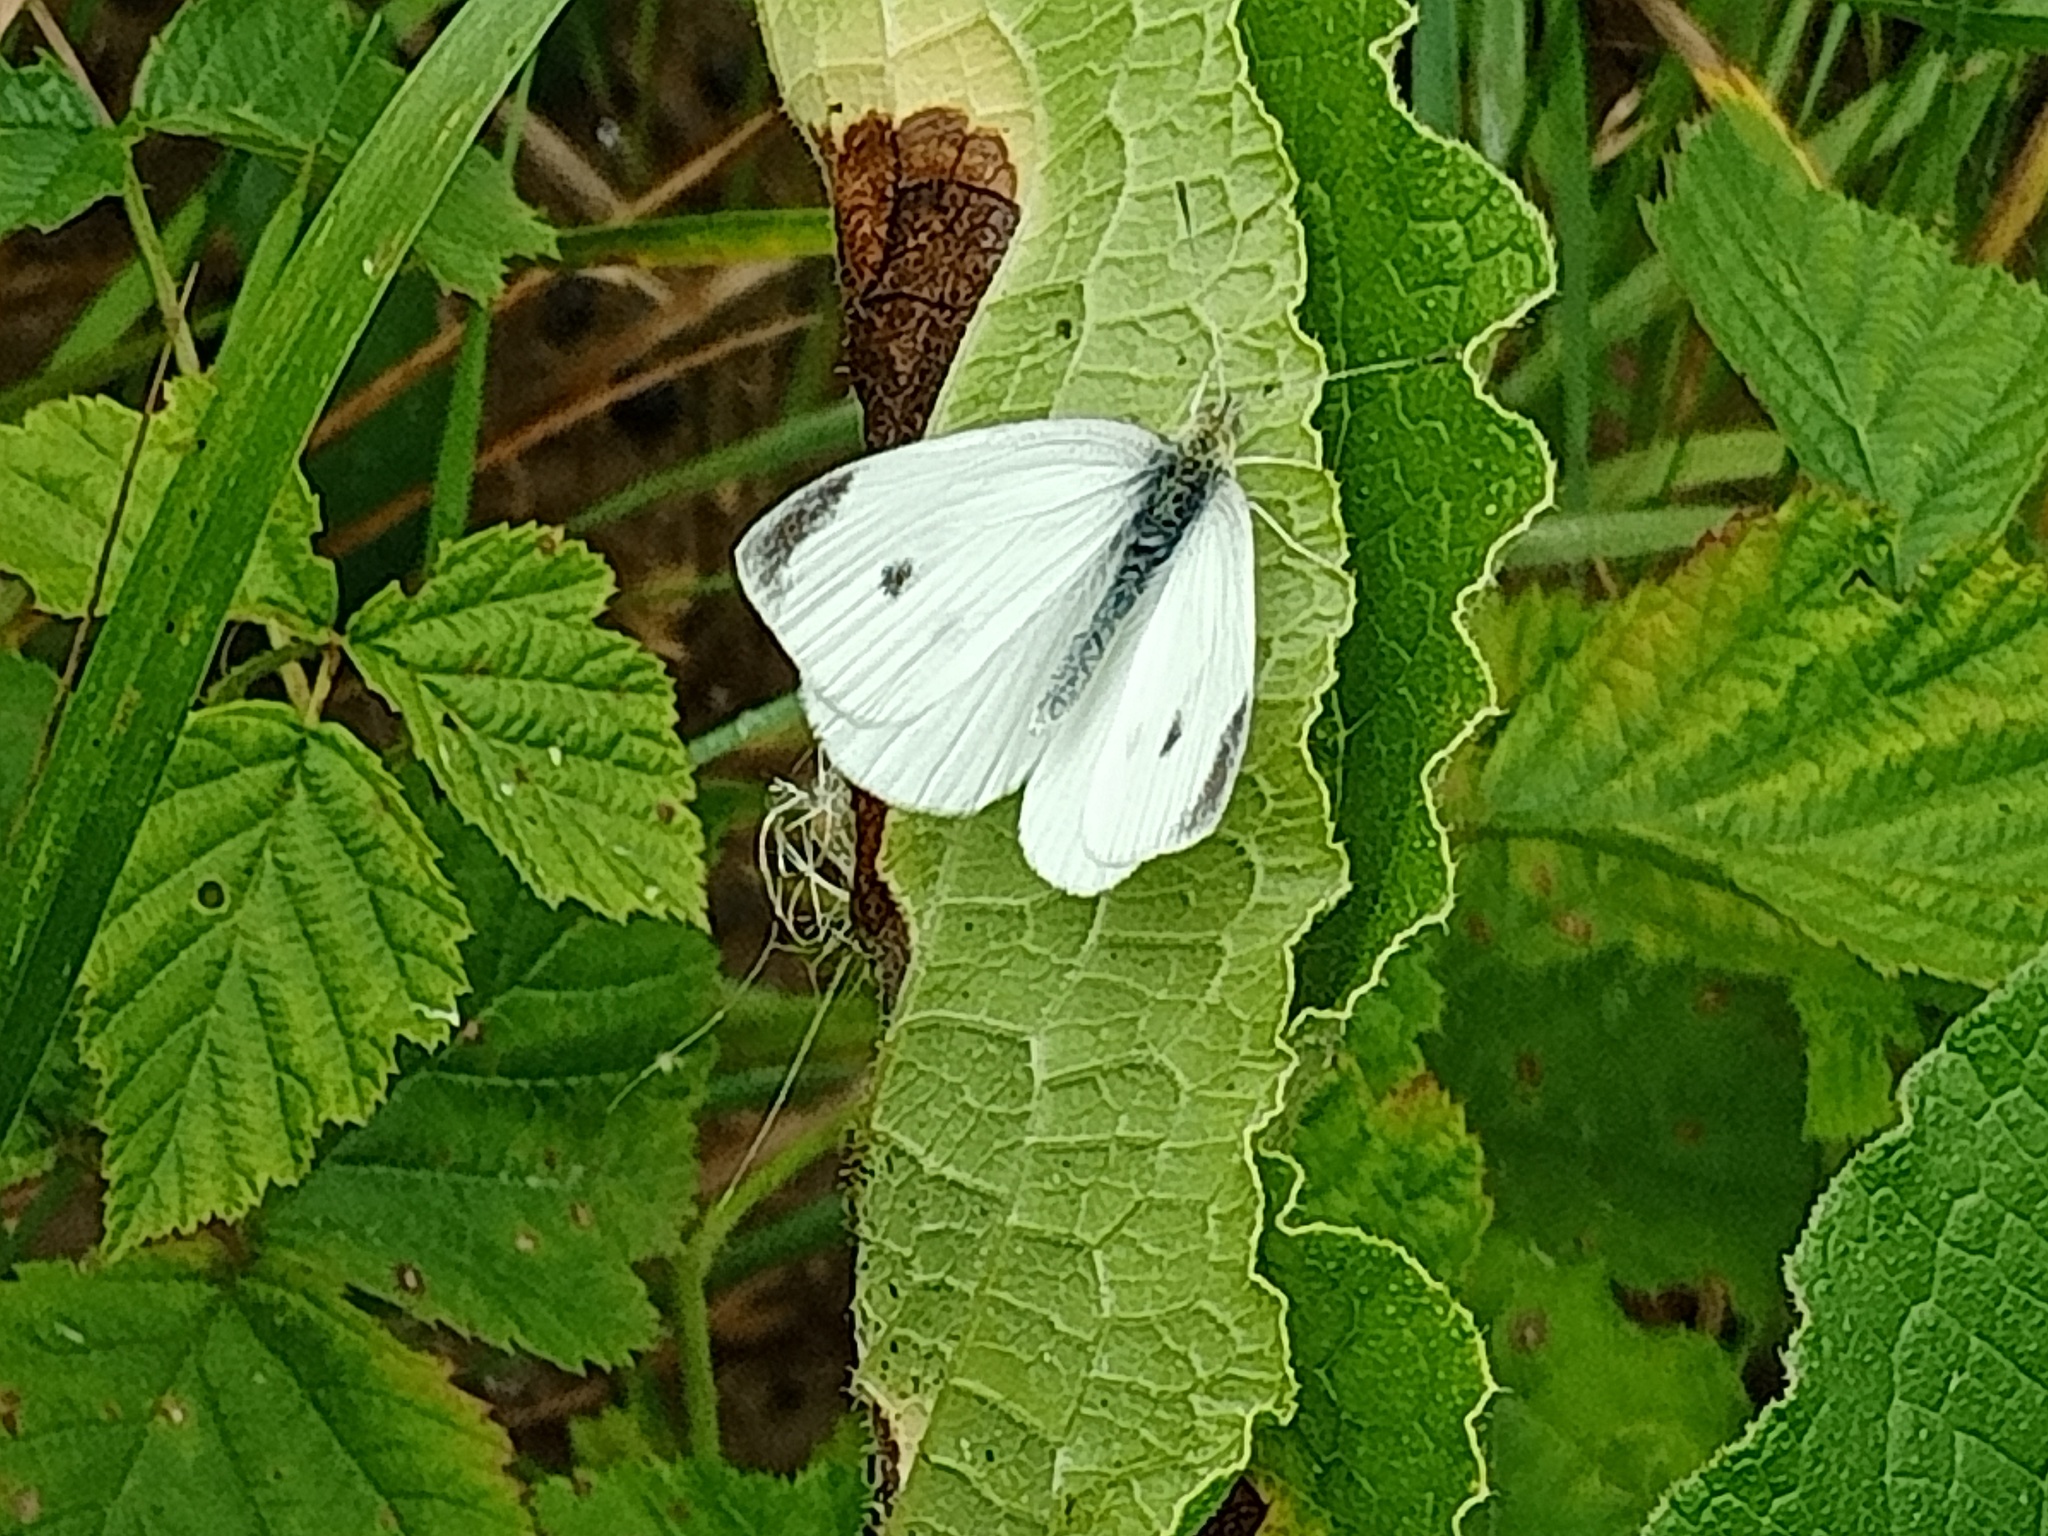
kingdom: Animalia
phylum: Arthropoda
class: Insecta
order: Lepidoptera
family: Pieridae
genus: Pieris
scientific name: Pieris rapae
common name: Small white
